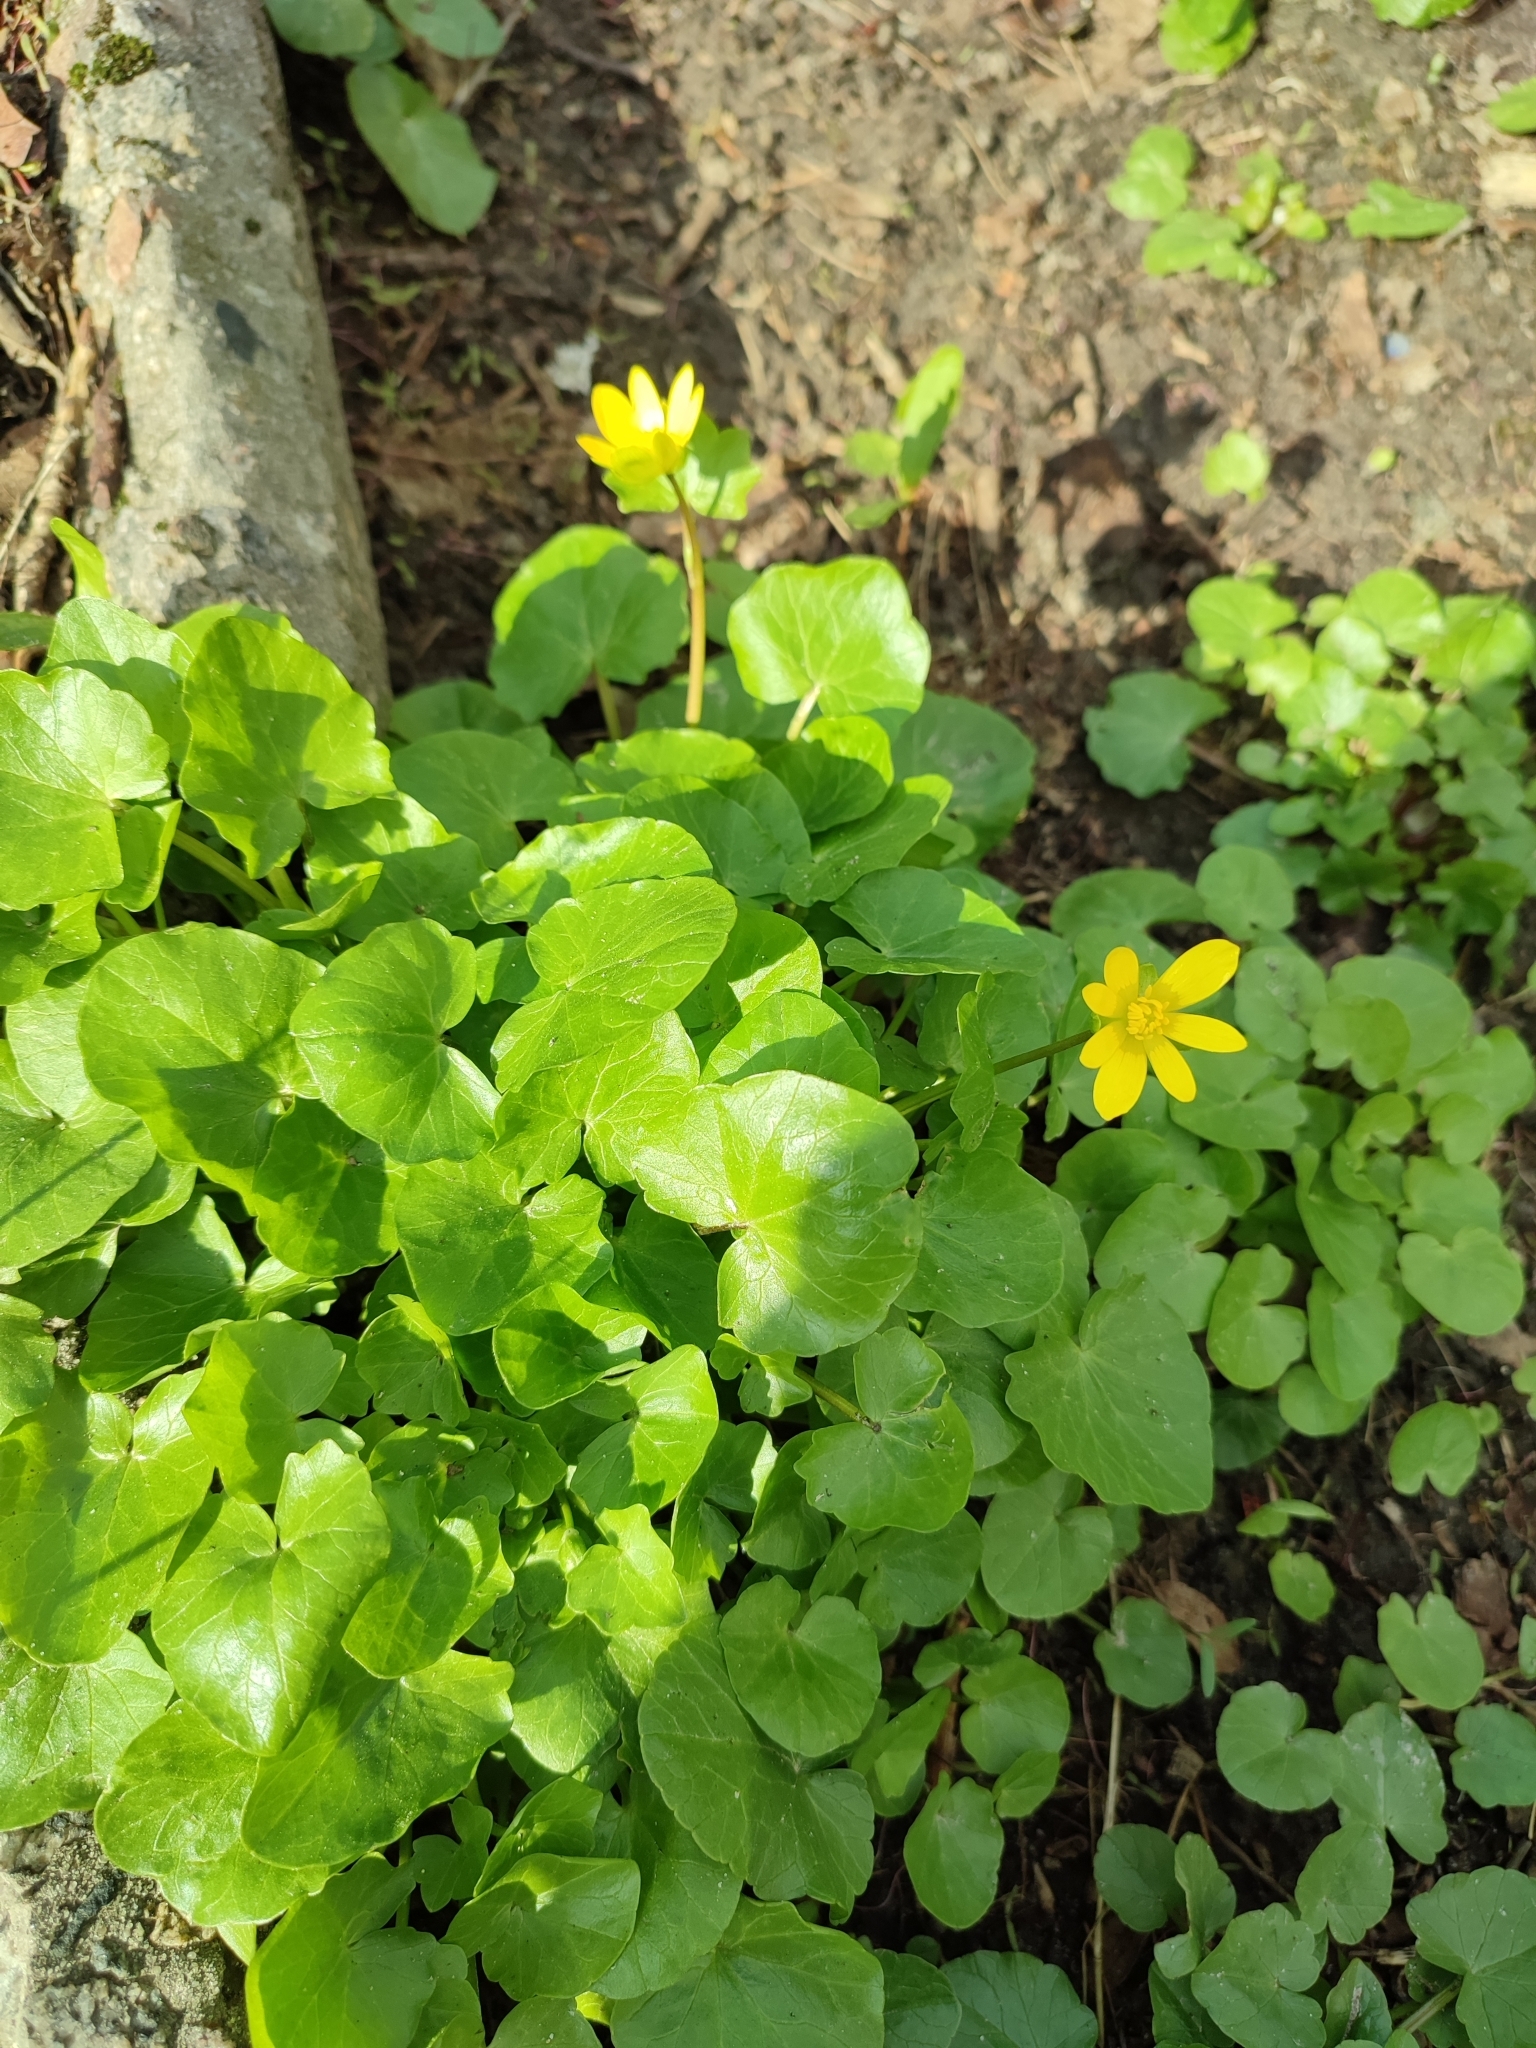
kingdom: Plantae
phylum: Tracheophyta
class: Magnoliopsida
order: Ranunculales
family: Ranunculaceae
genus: Ficaria
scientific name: Ficaria verna
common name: Lesser celandine
